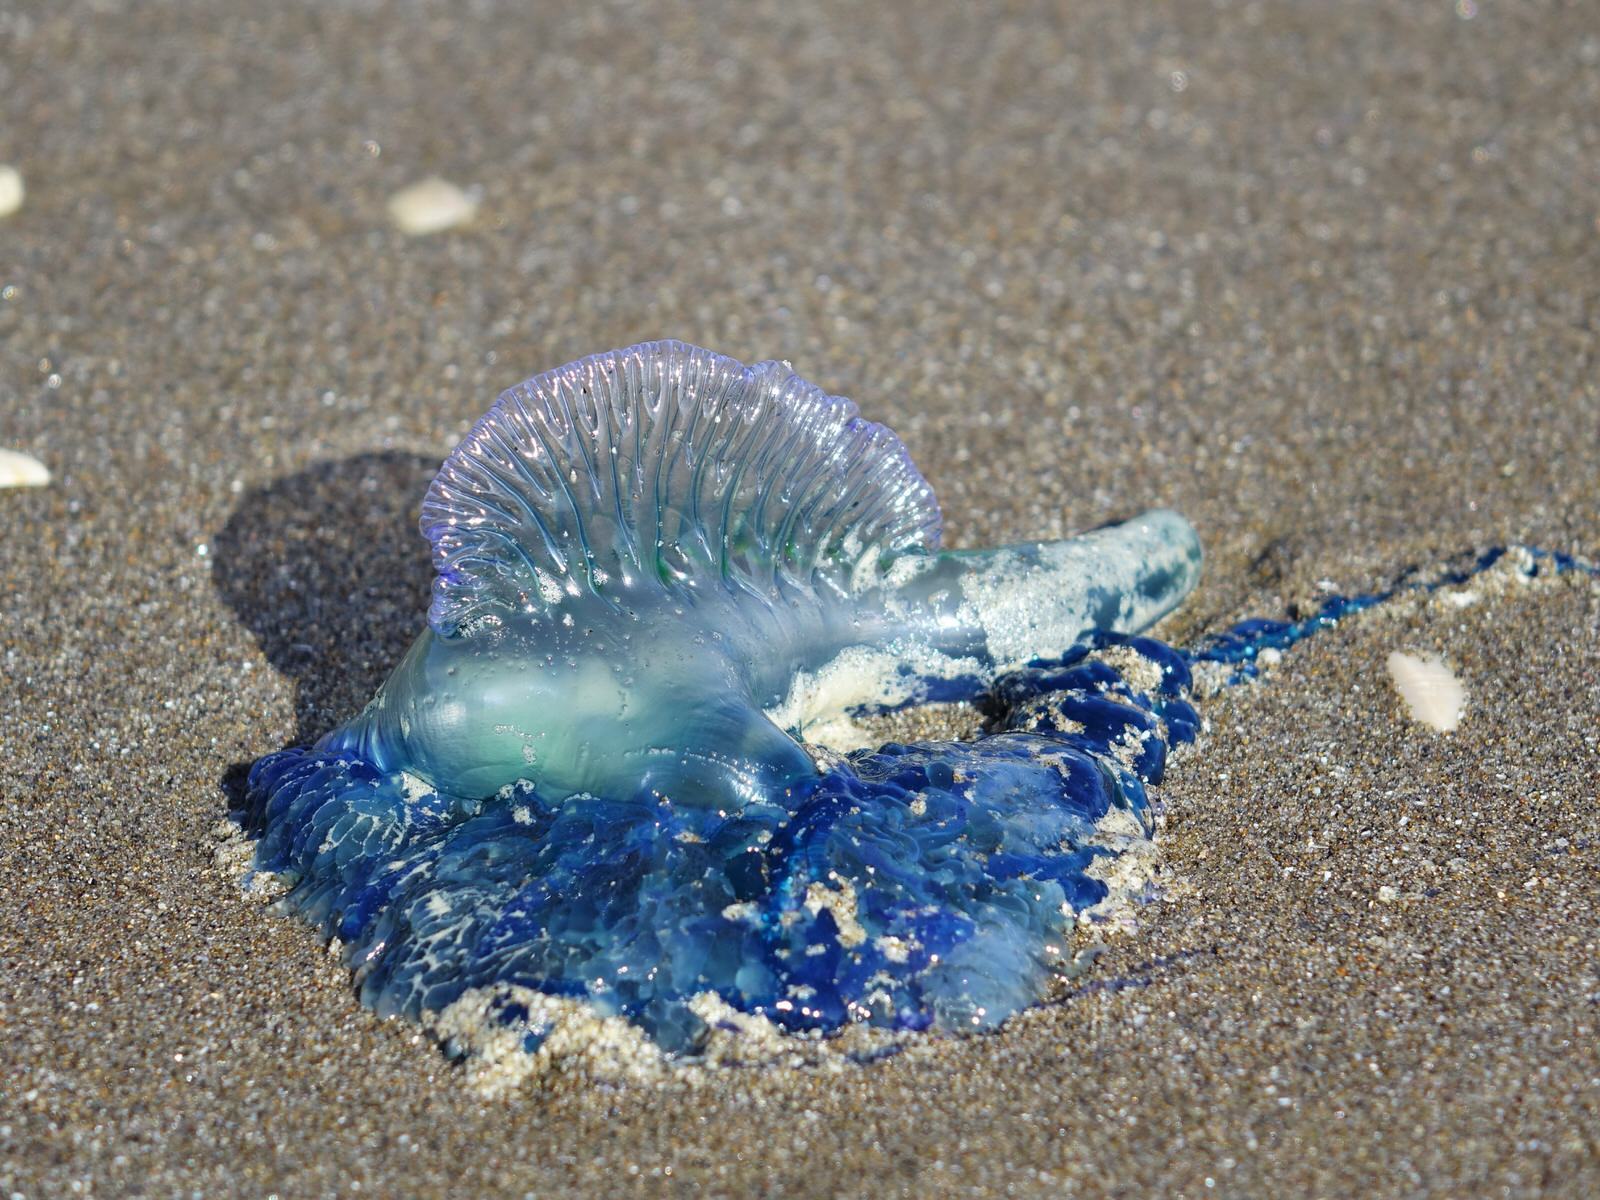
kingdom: Animalia
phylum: Cnidaria
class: Hydrozoa
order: Siphonophorae
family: Physaliidae
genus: Physalia
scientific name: Physalia physalis
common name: Portuguese man-of-war
